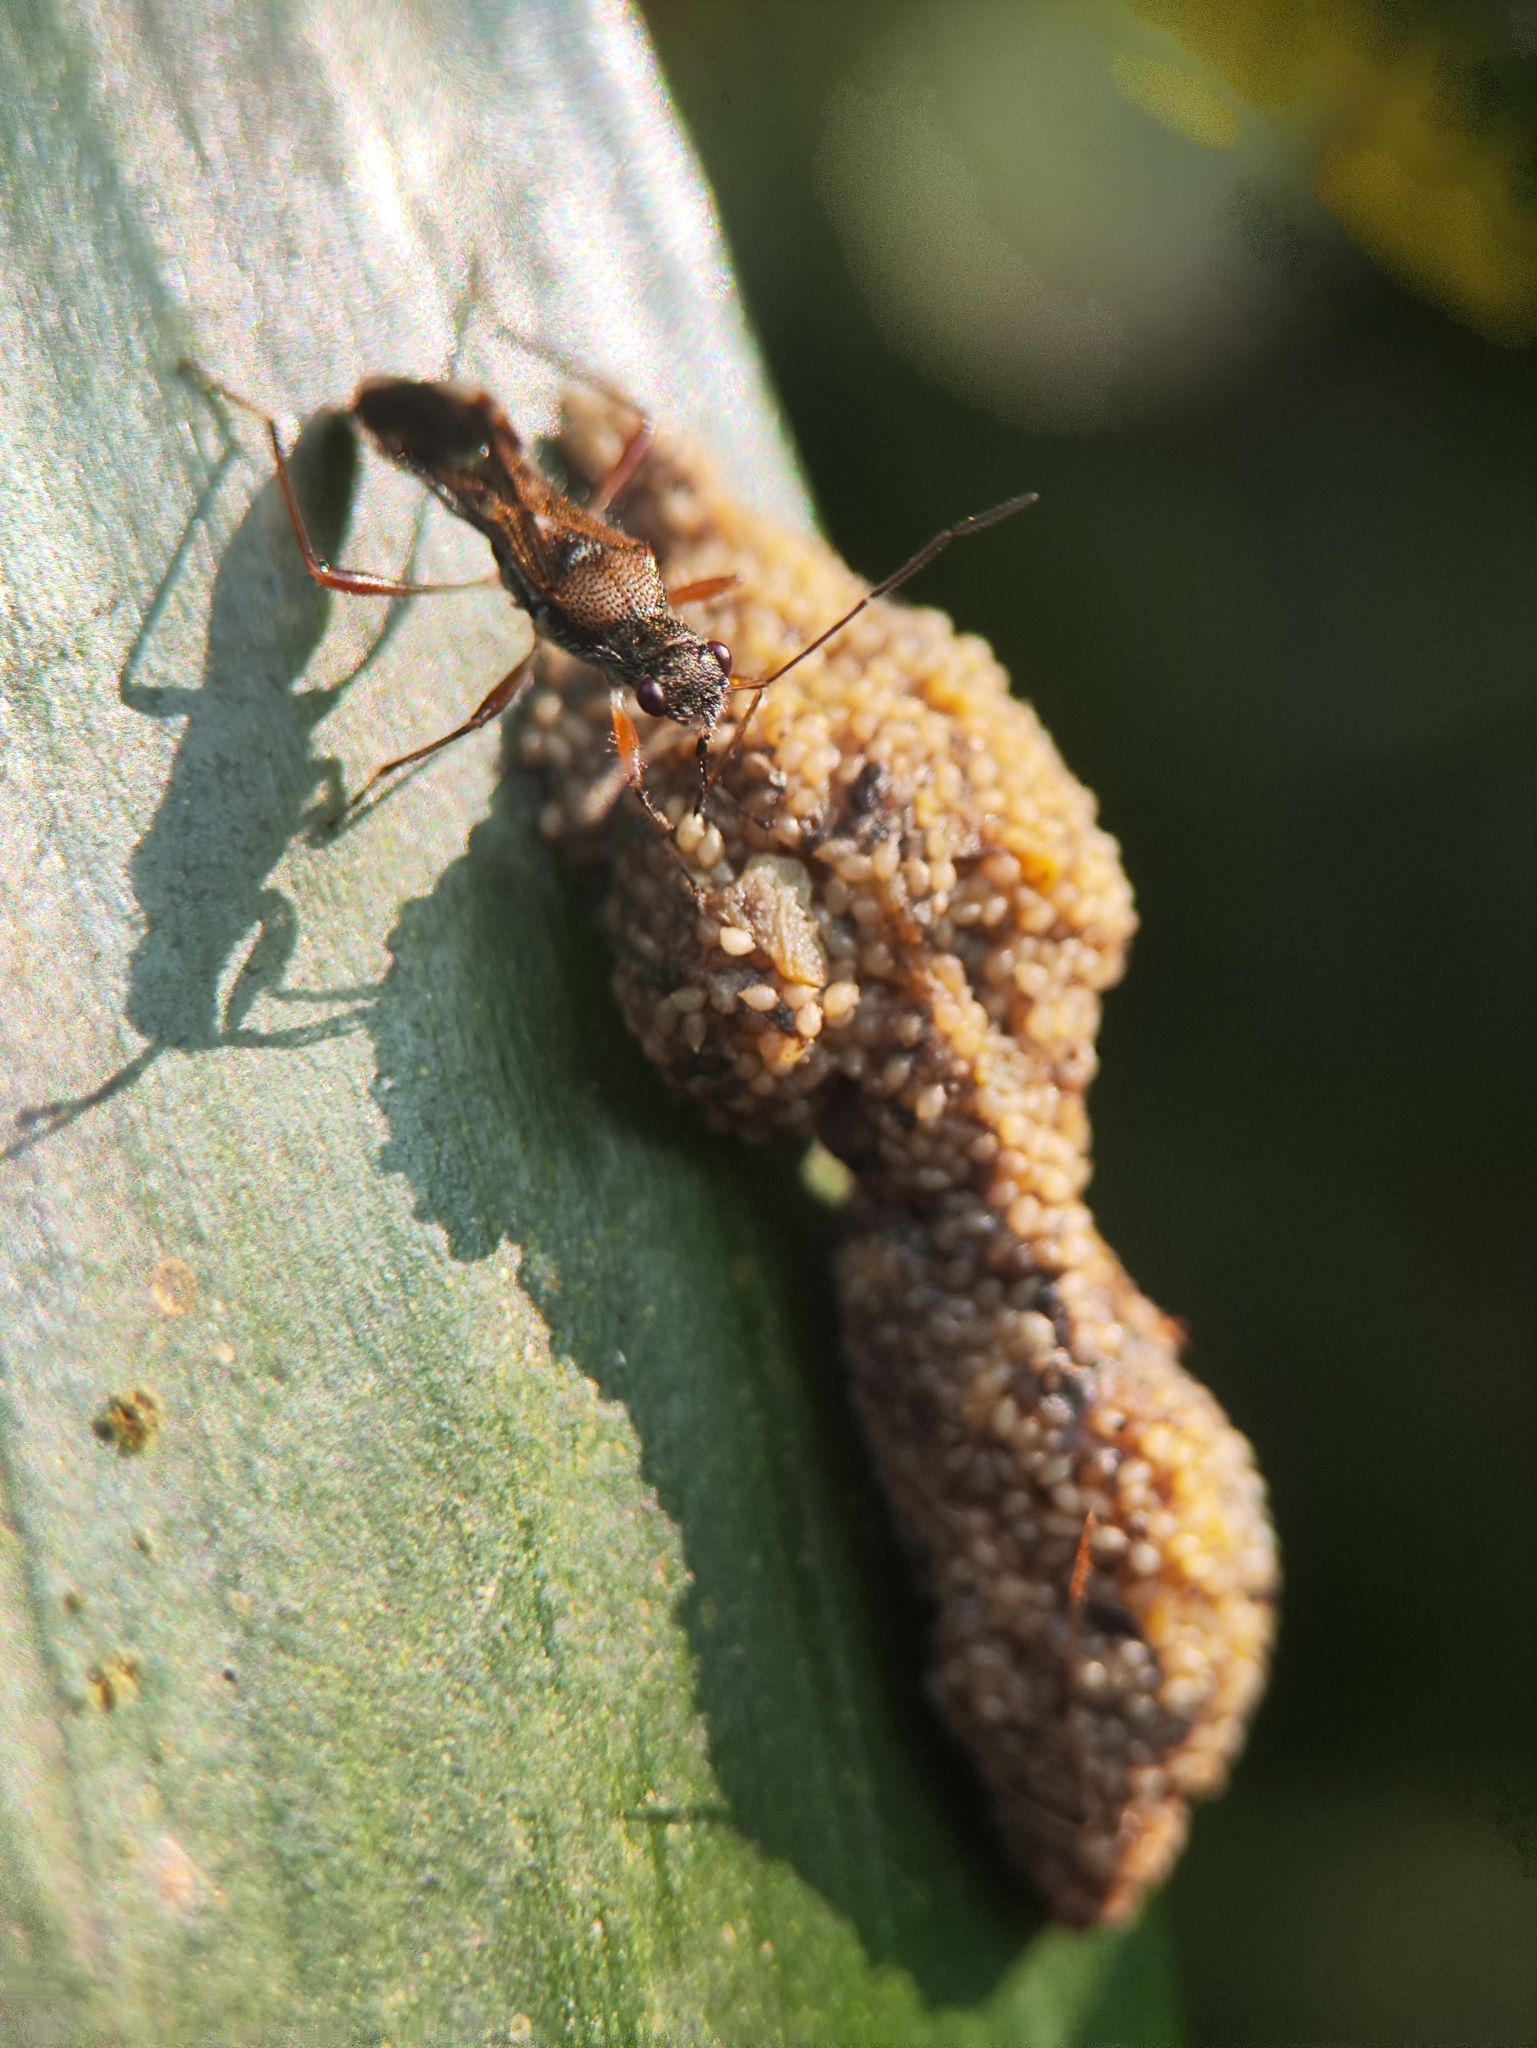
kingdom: Animalia
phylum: Arthropoda
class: Insecta
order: Hemiptera
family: Heterogastridae
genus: Artemidorus
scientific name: Artemidorus pressus
